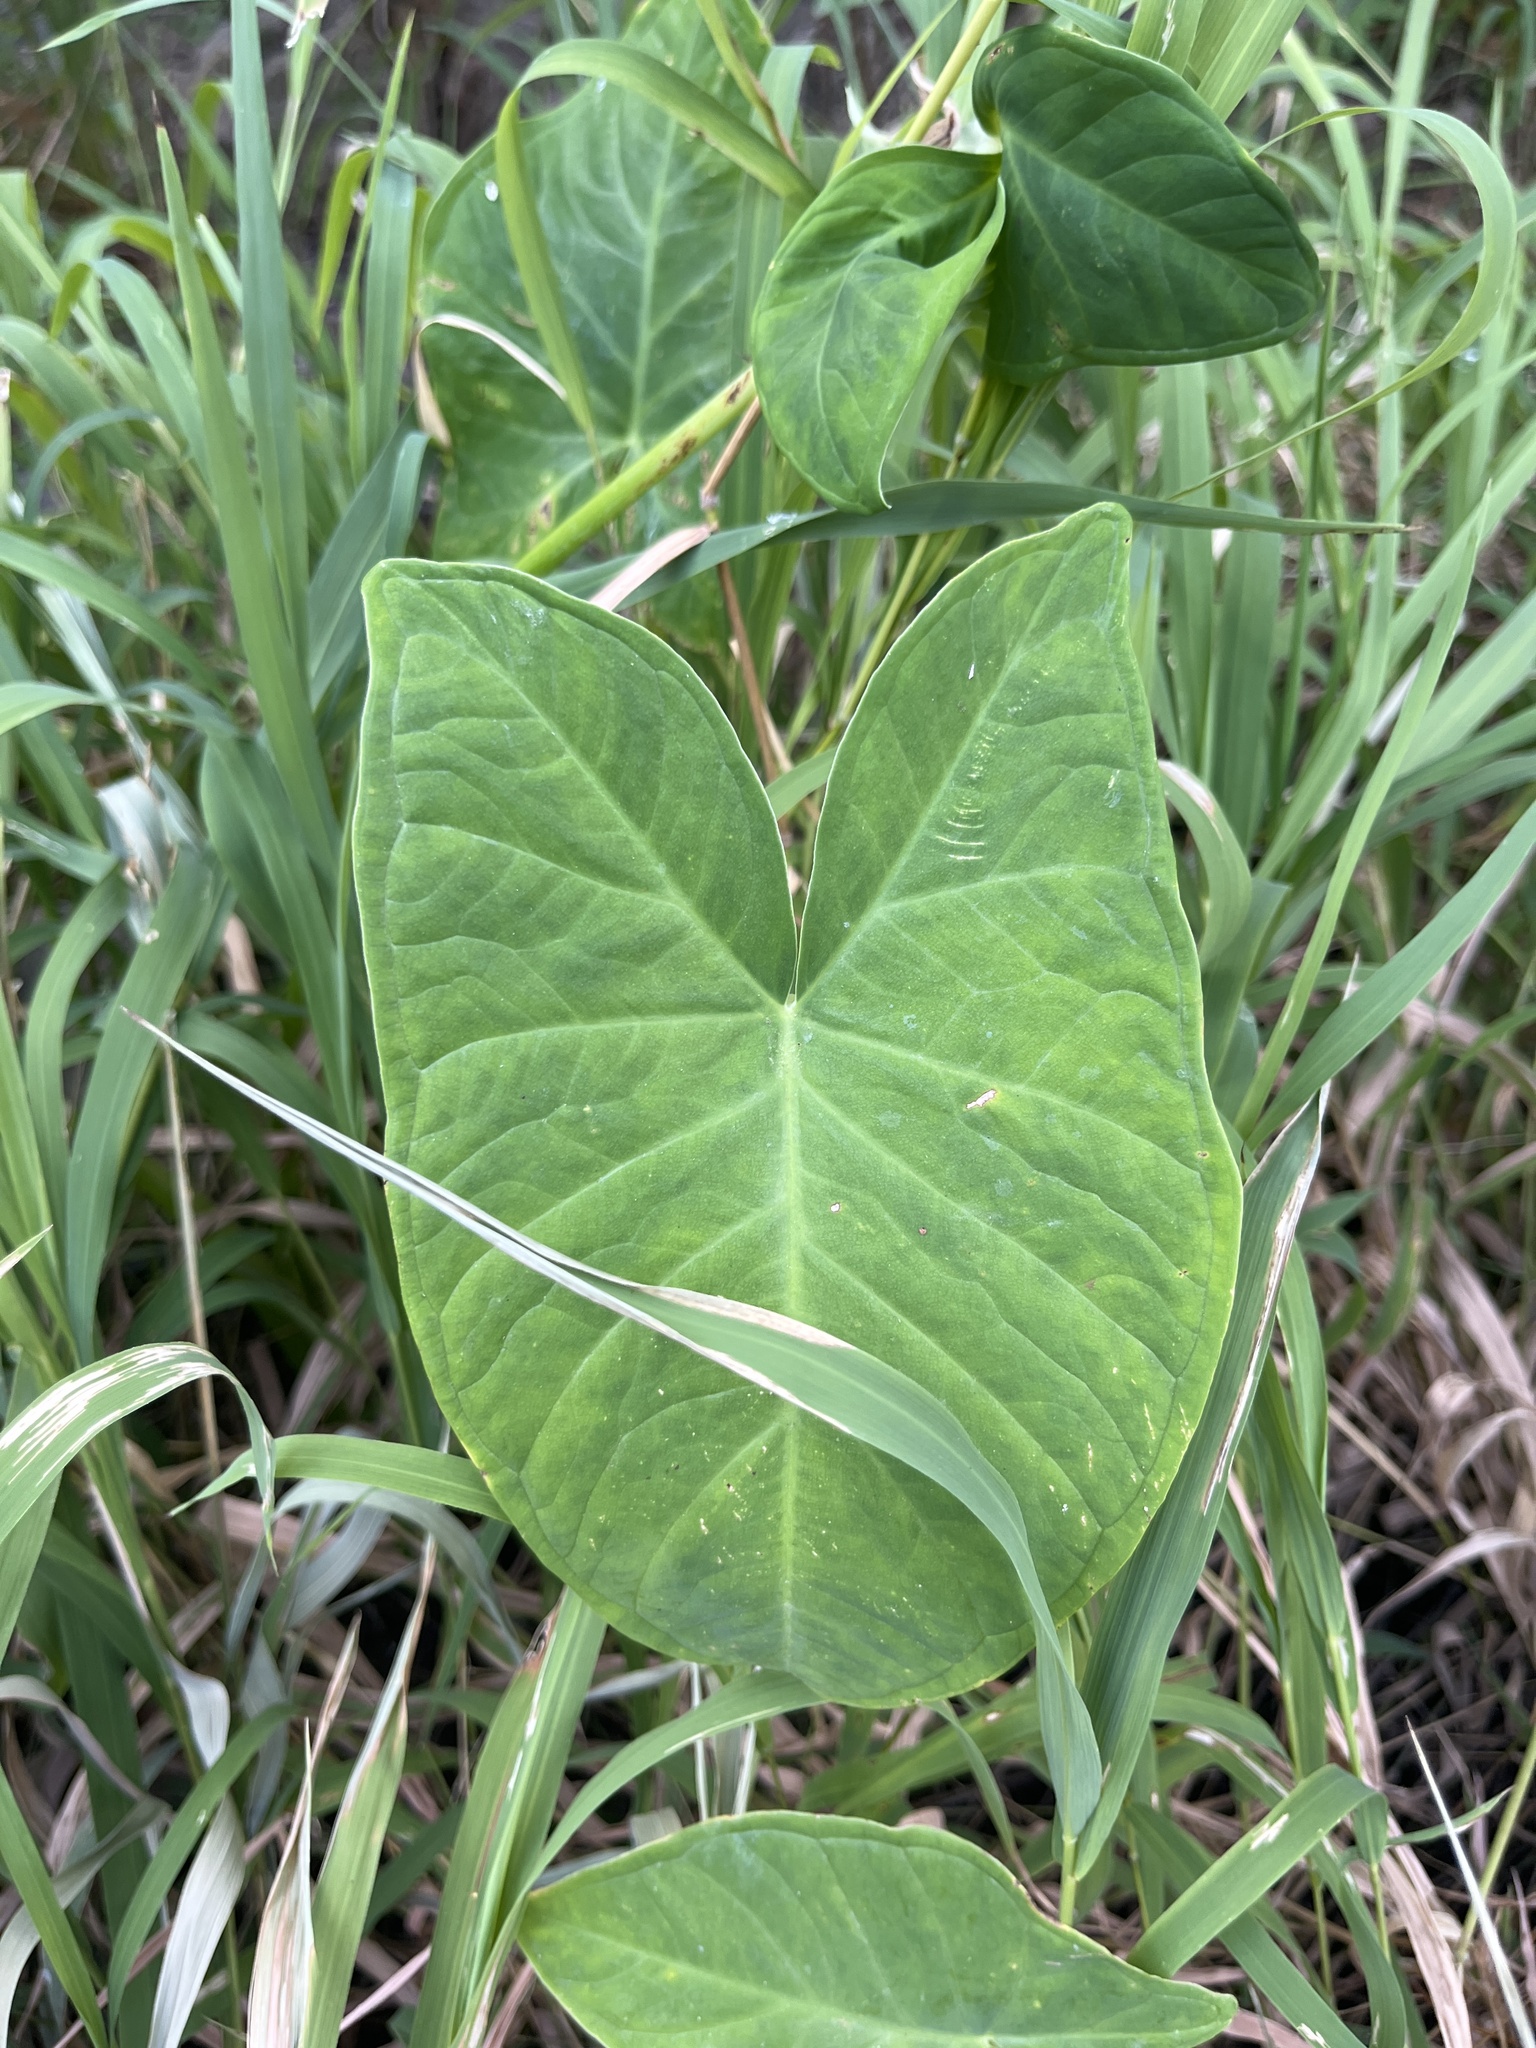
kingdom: Plantae
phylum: Tracheophyta
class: Liliopsida
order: Alismatales
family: Araceae
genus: Xanthosoma
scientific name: Xanthosoma sagittifolium
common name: Arrowleaf elephant's ear
